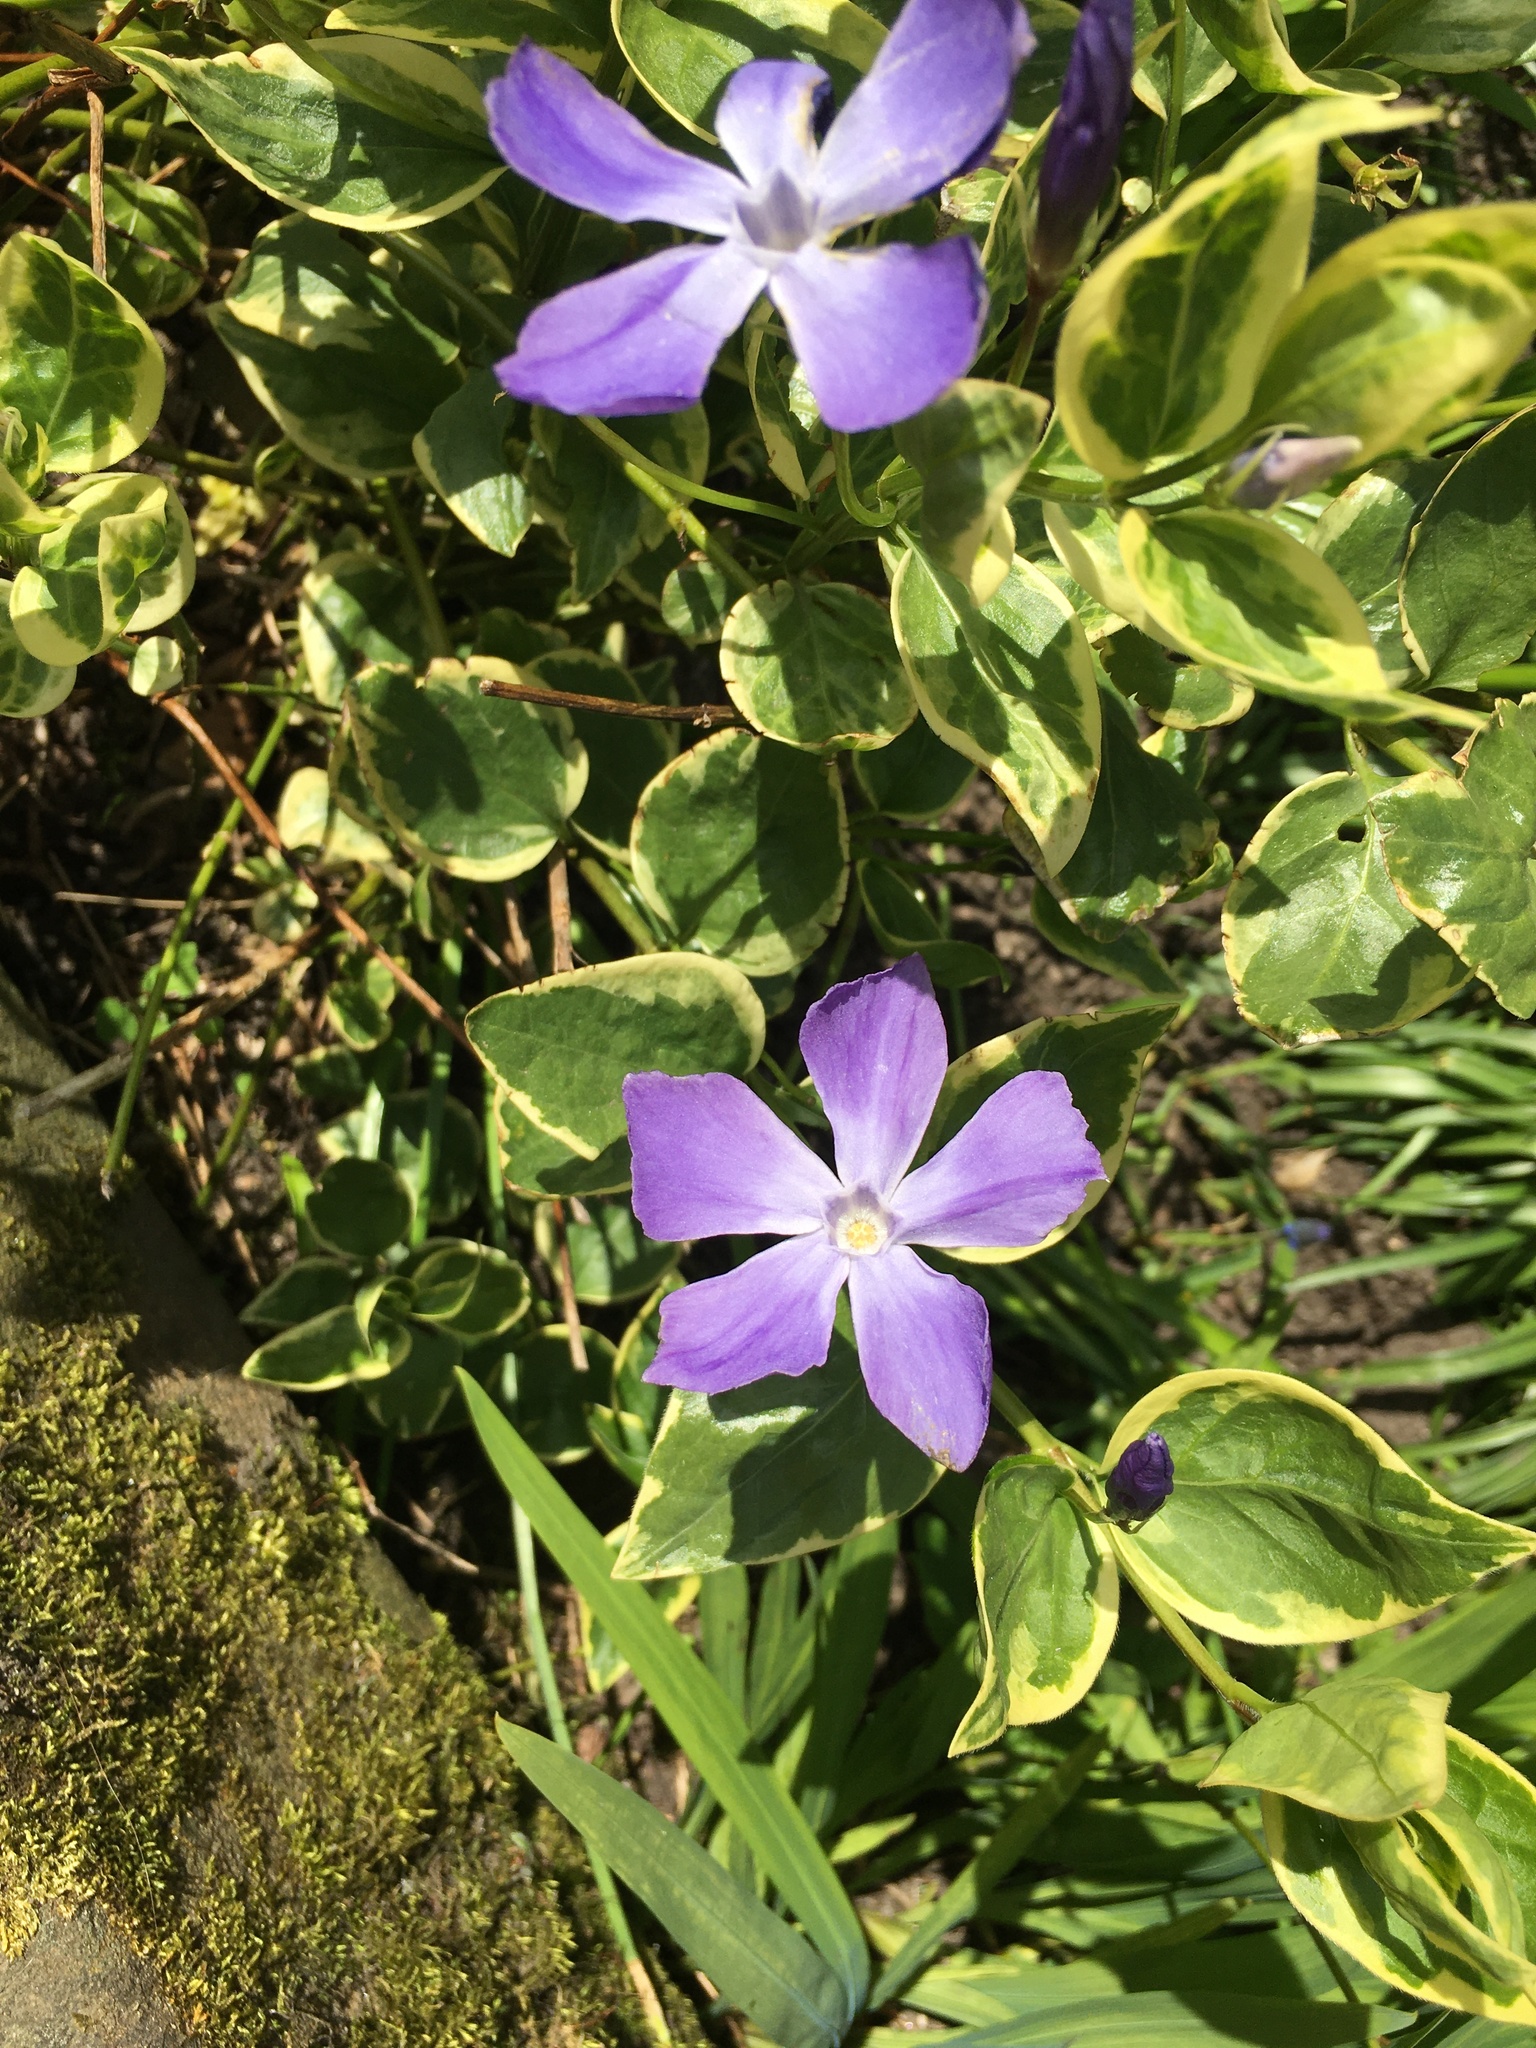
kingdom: Plantae
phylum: Tracheophyta
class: Magnoliopsida
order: Gentianales
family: Apocynaceae
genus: Vinca
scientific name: Vinca major
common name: Greater periwinkle
